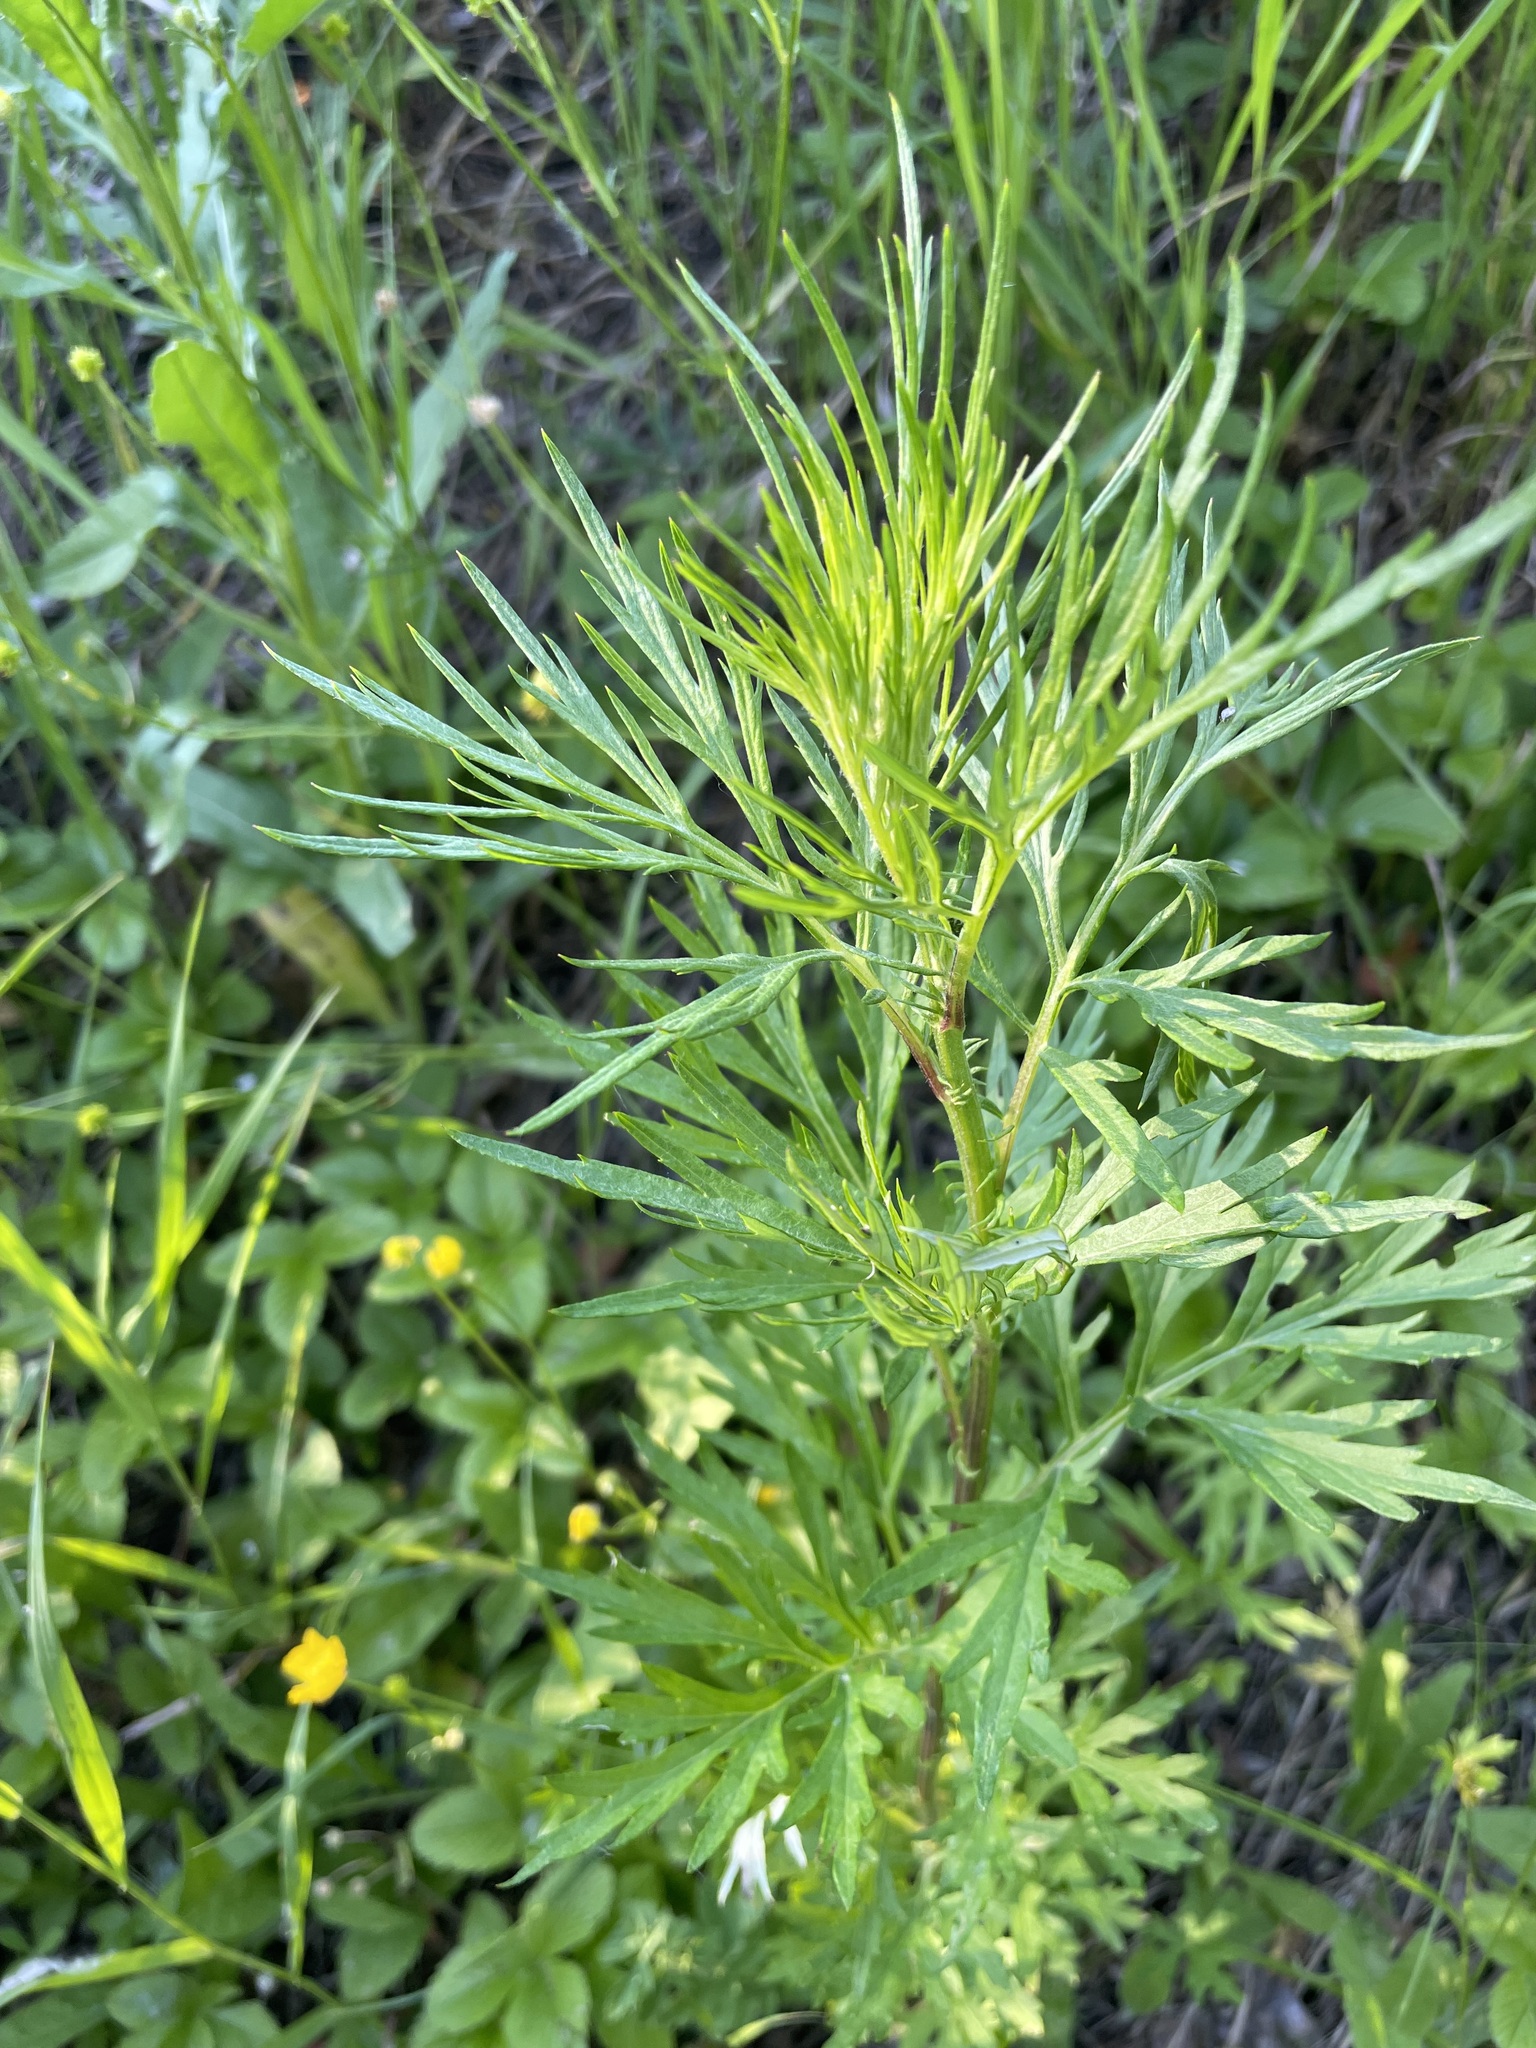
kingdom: Plantae
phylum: Tracheophyta
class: Magnoliopsida
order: Asterales
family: Asteraceae
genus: Artemisia
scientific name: Artemisia vulgaris
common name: Mugwort
